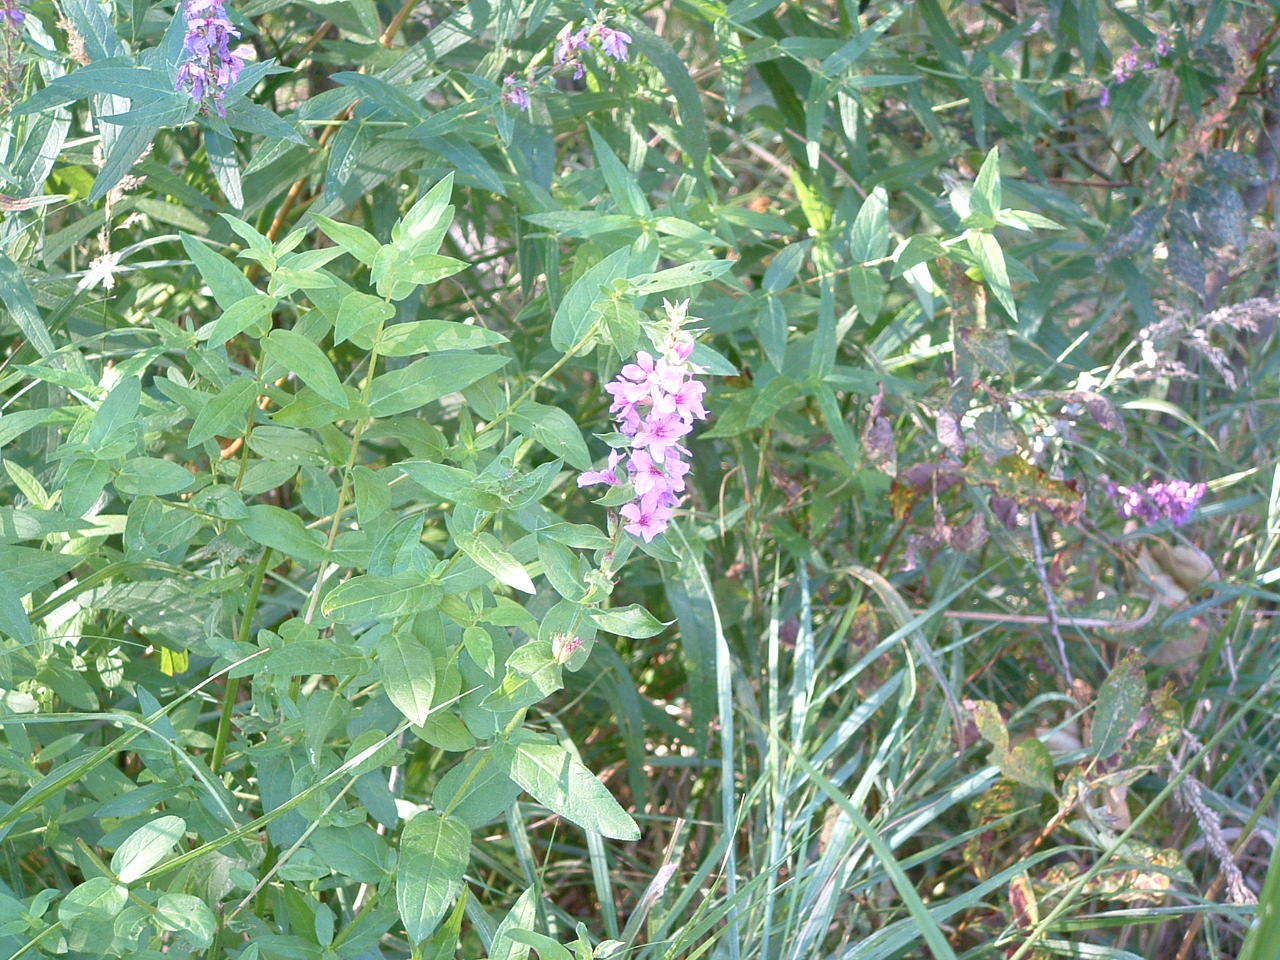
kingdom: Plantae
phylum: Tracheophyta
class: Magnoliopsida
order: Myrtales
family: Lythraceae
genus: Lythrum
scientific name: Lythrum salicaria
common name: Purple loosestrife
